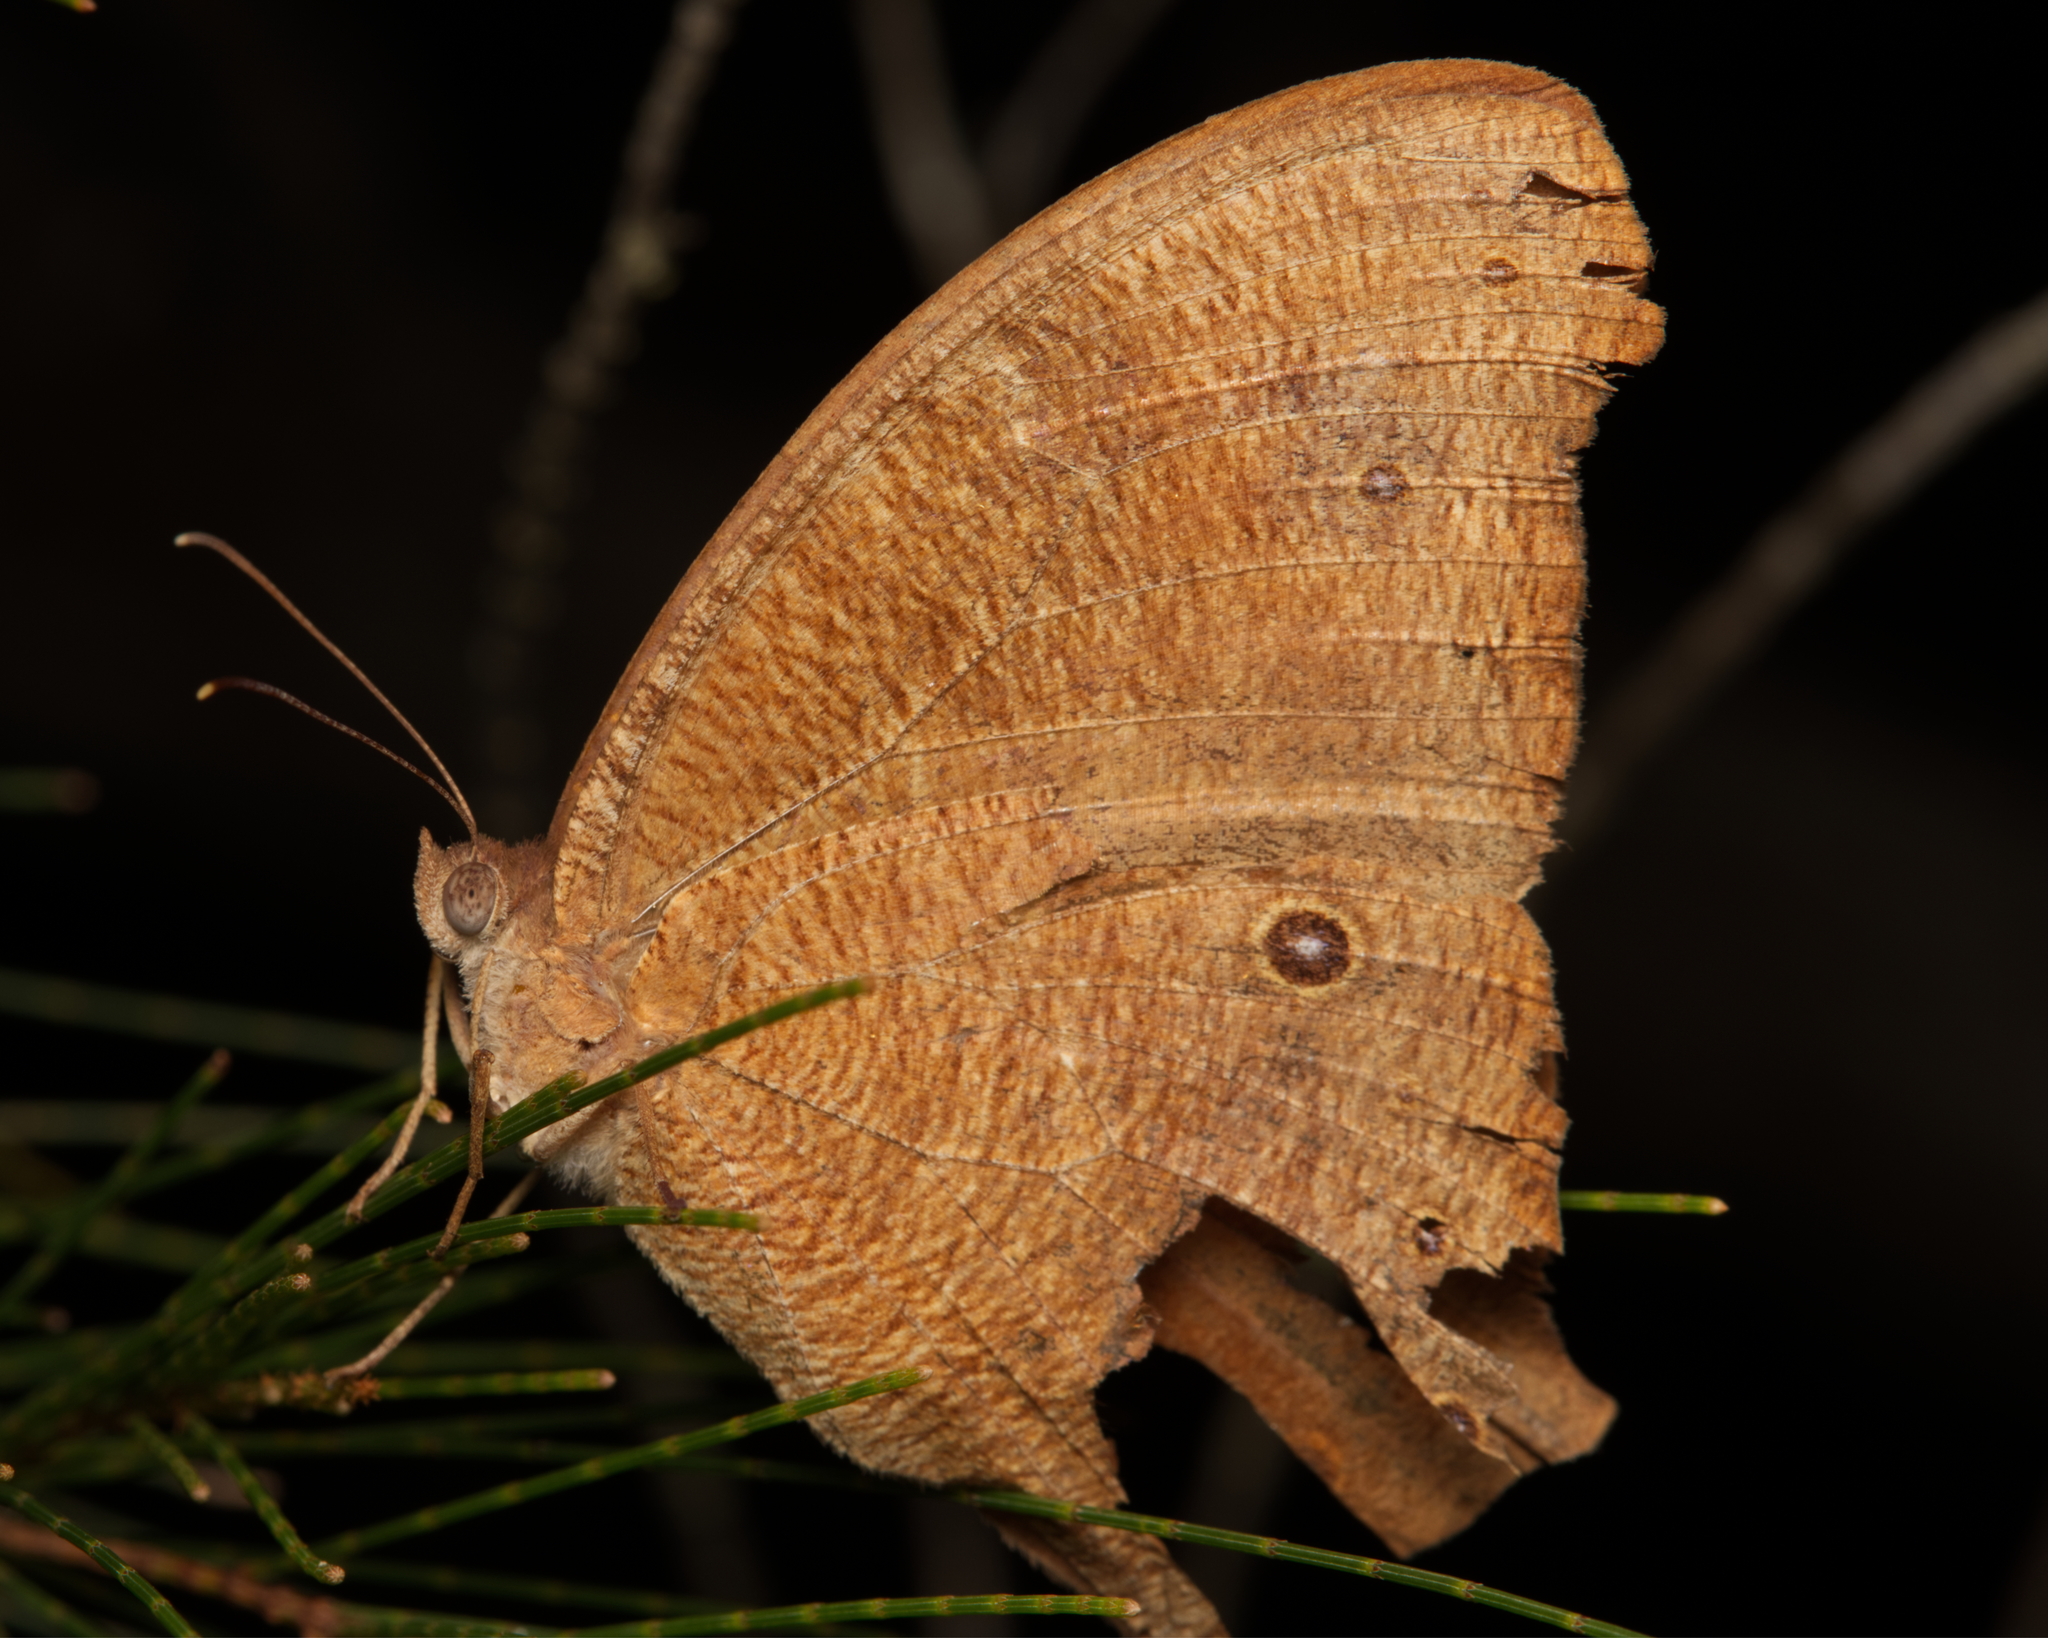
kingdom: Animalia
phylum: Arthropoda
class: Insecta
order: Lepidoptera
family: Nymphalidae
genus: Melanitis
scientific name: Melanitis leda
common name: Twilight brown
